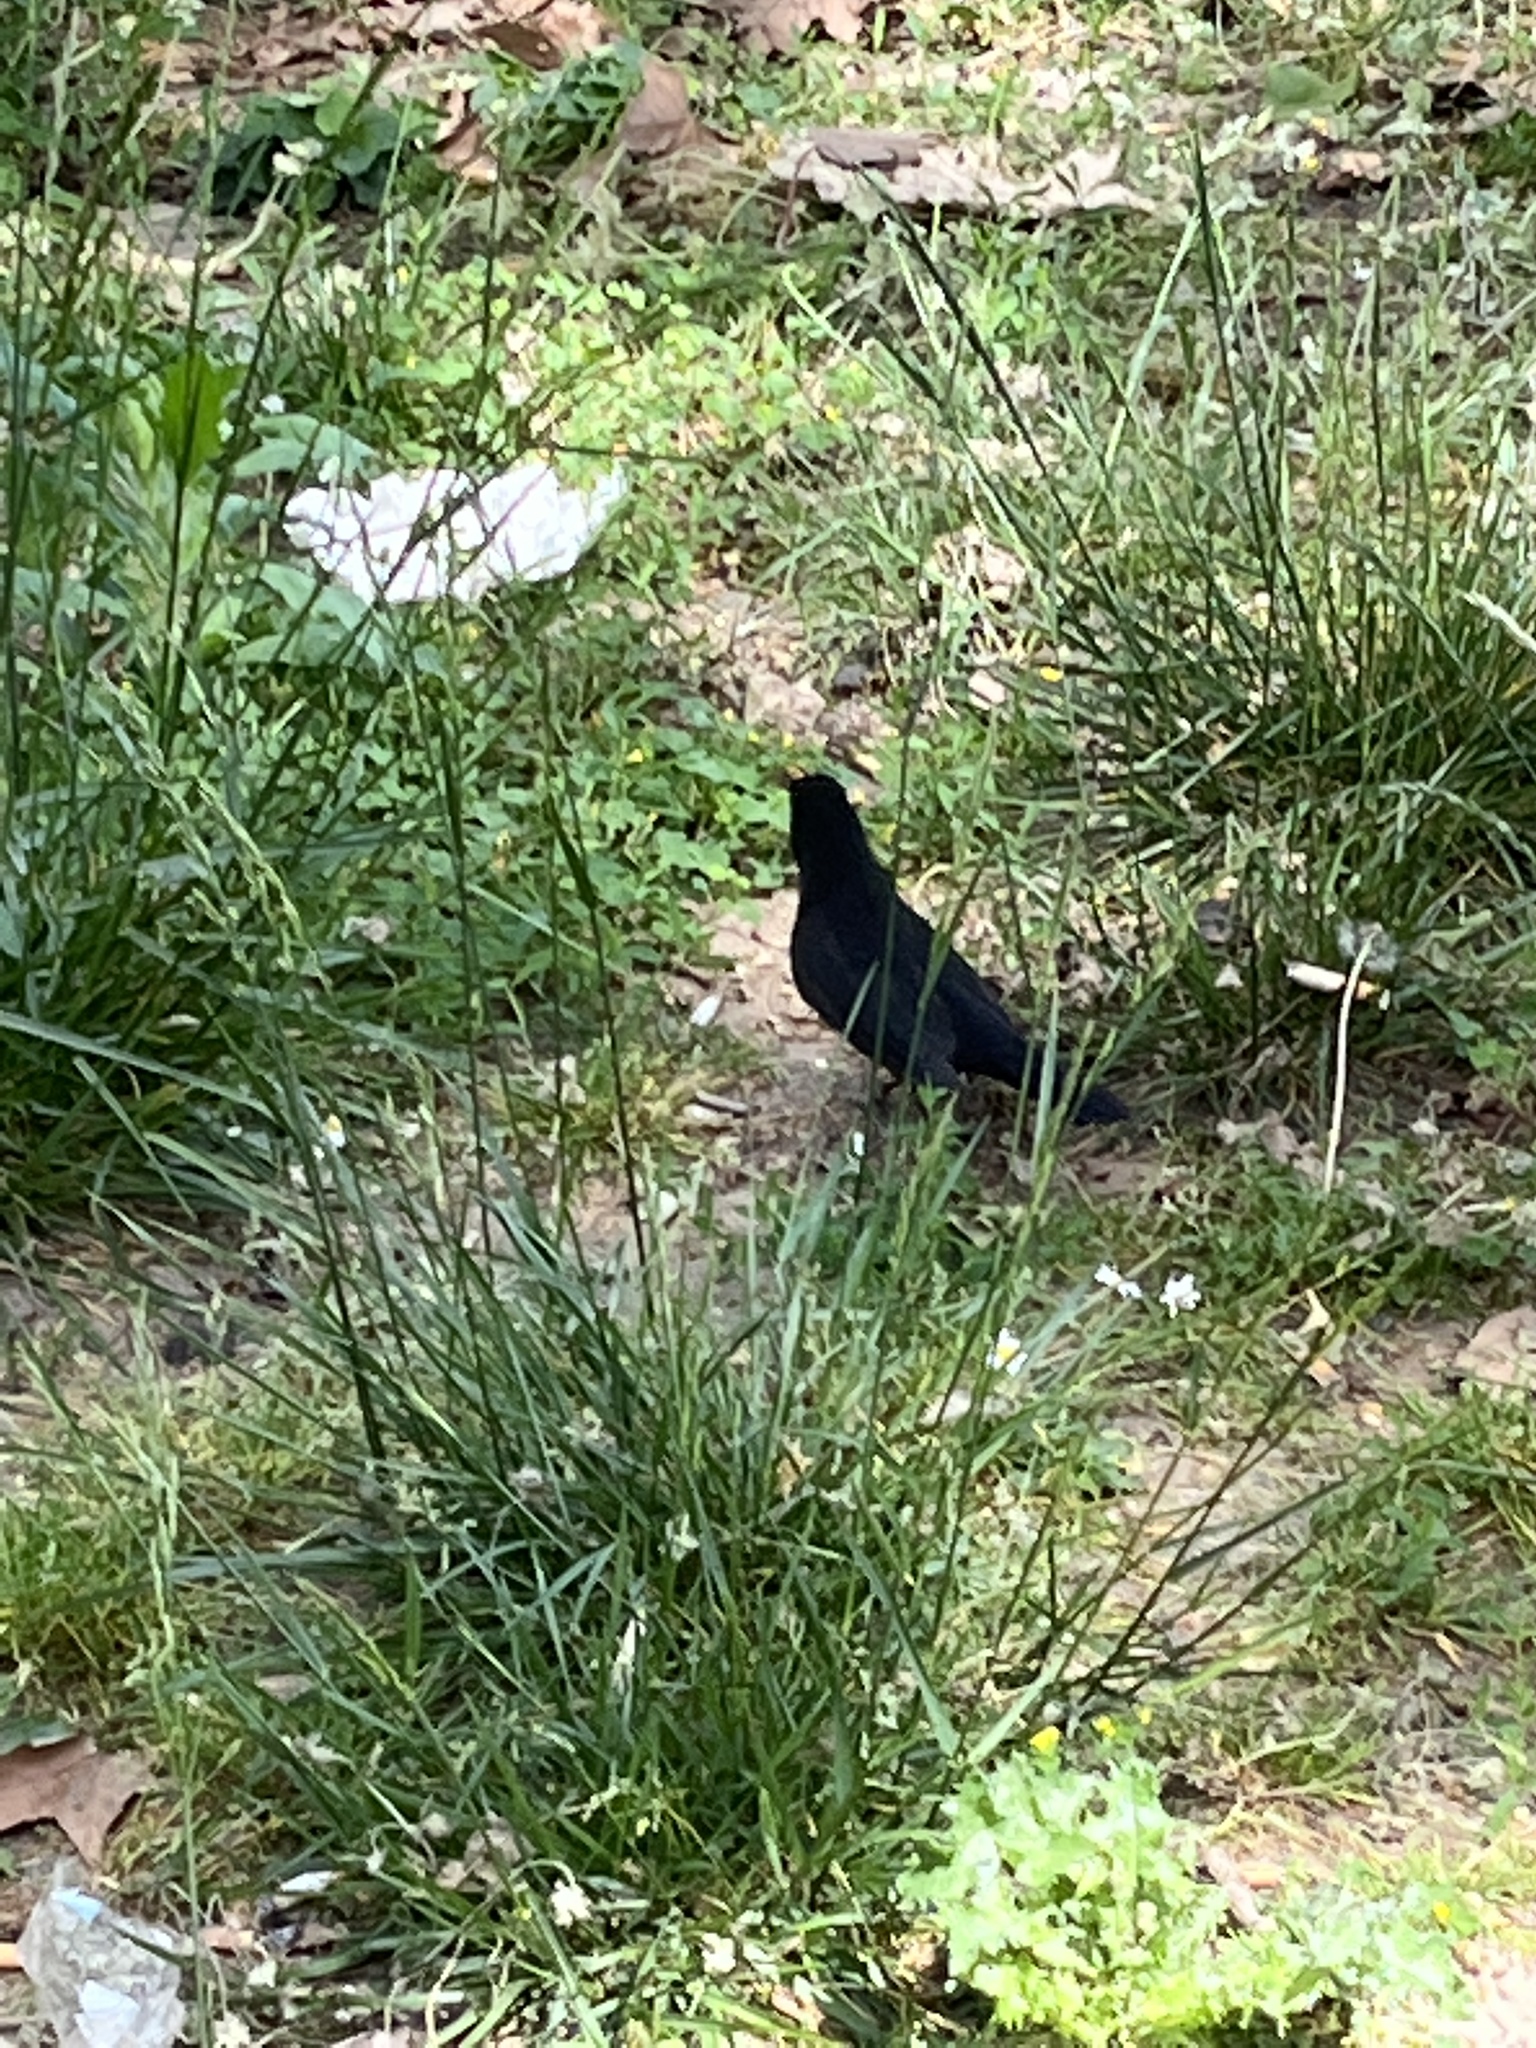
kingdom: Animalia
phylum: Chordata
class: Aves
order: Passeriformes
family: Turdidae
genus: Turdus
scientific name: Turdus merula
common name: Common blackbird
